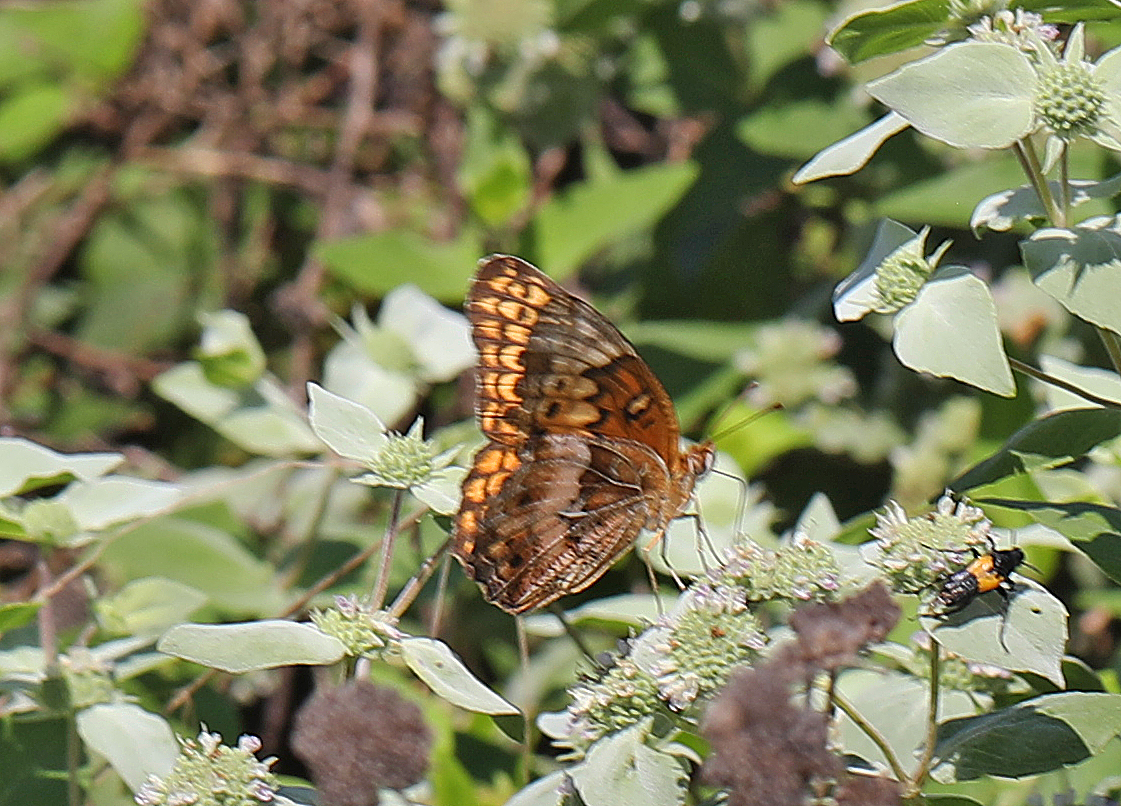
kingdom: Animalia
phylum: Arthropoda
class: Insecta
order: Lepidoptera
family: Nymphalidae
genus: Euptoieta
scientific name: Euptoieta claudia
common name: Variegated fritillary
